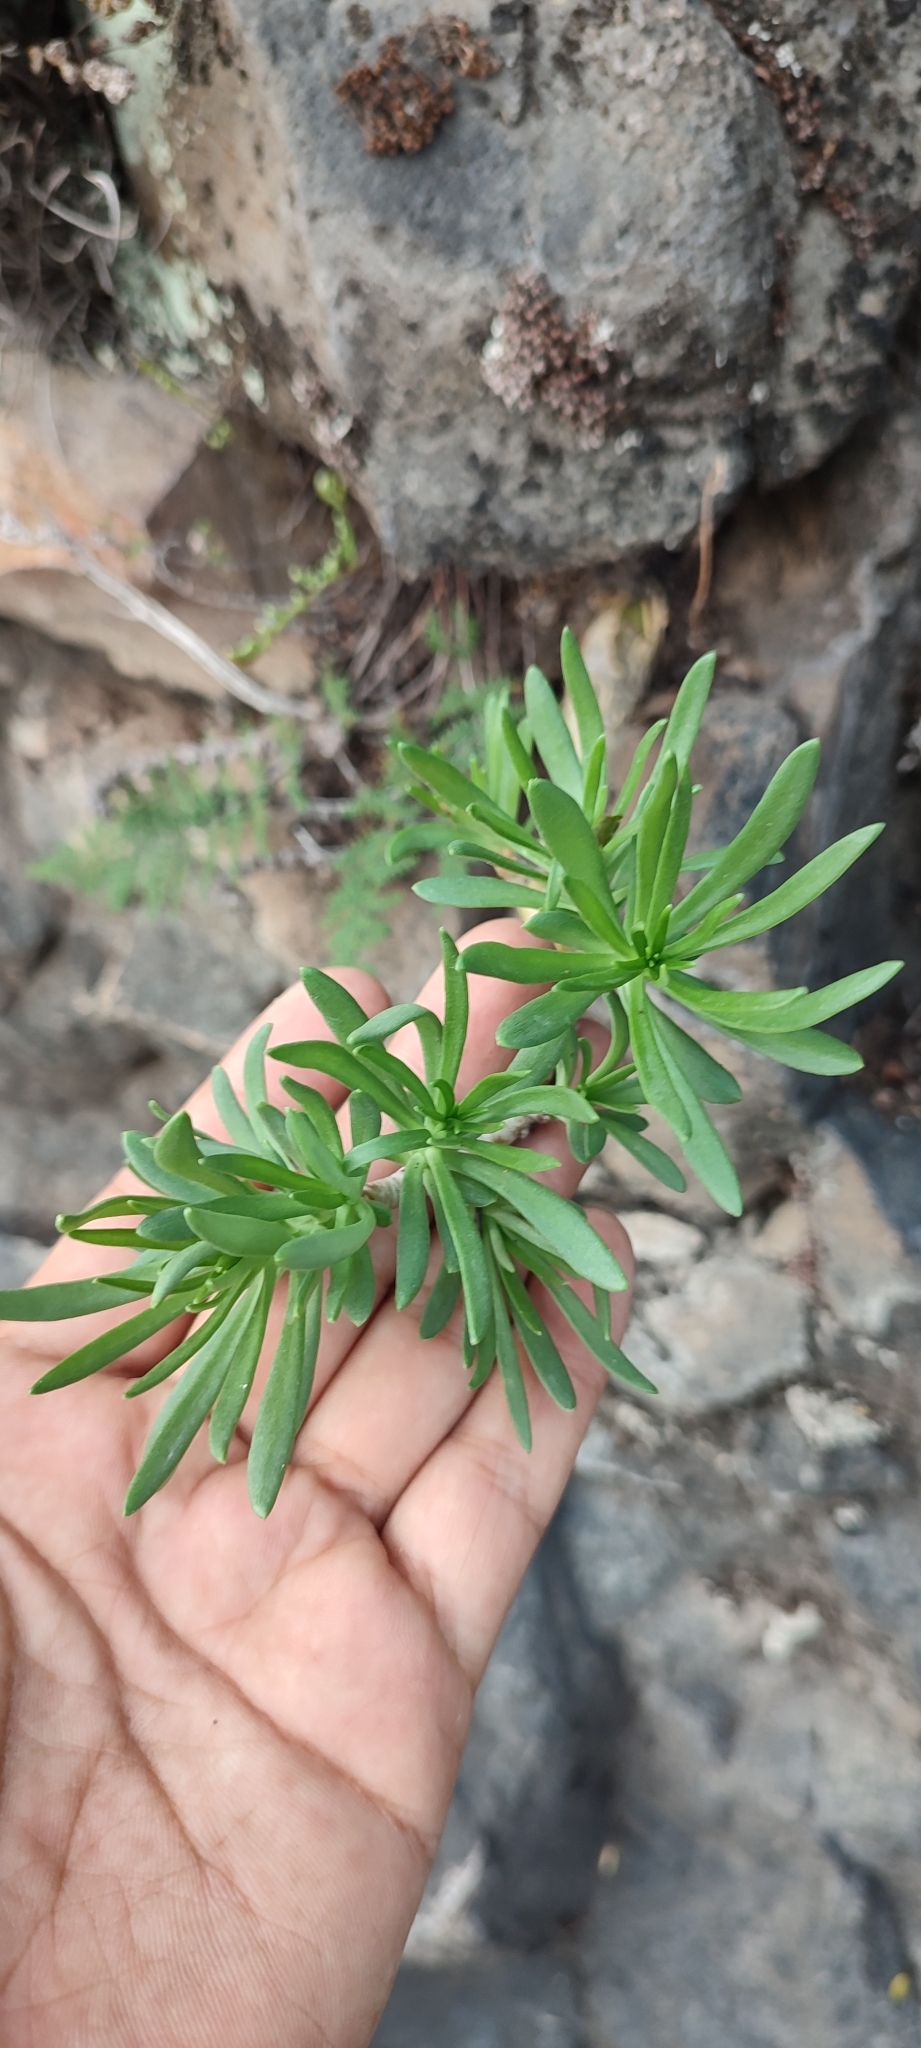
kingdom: Plantae
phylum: Tracheophyta
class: Magnoliopsida
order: Saxifragales
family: Crassulaceae
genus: Sedum
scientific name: Sedum frutescens
